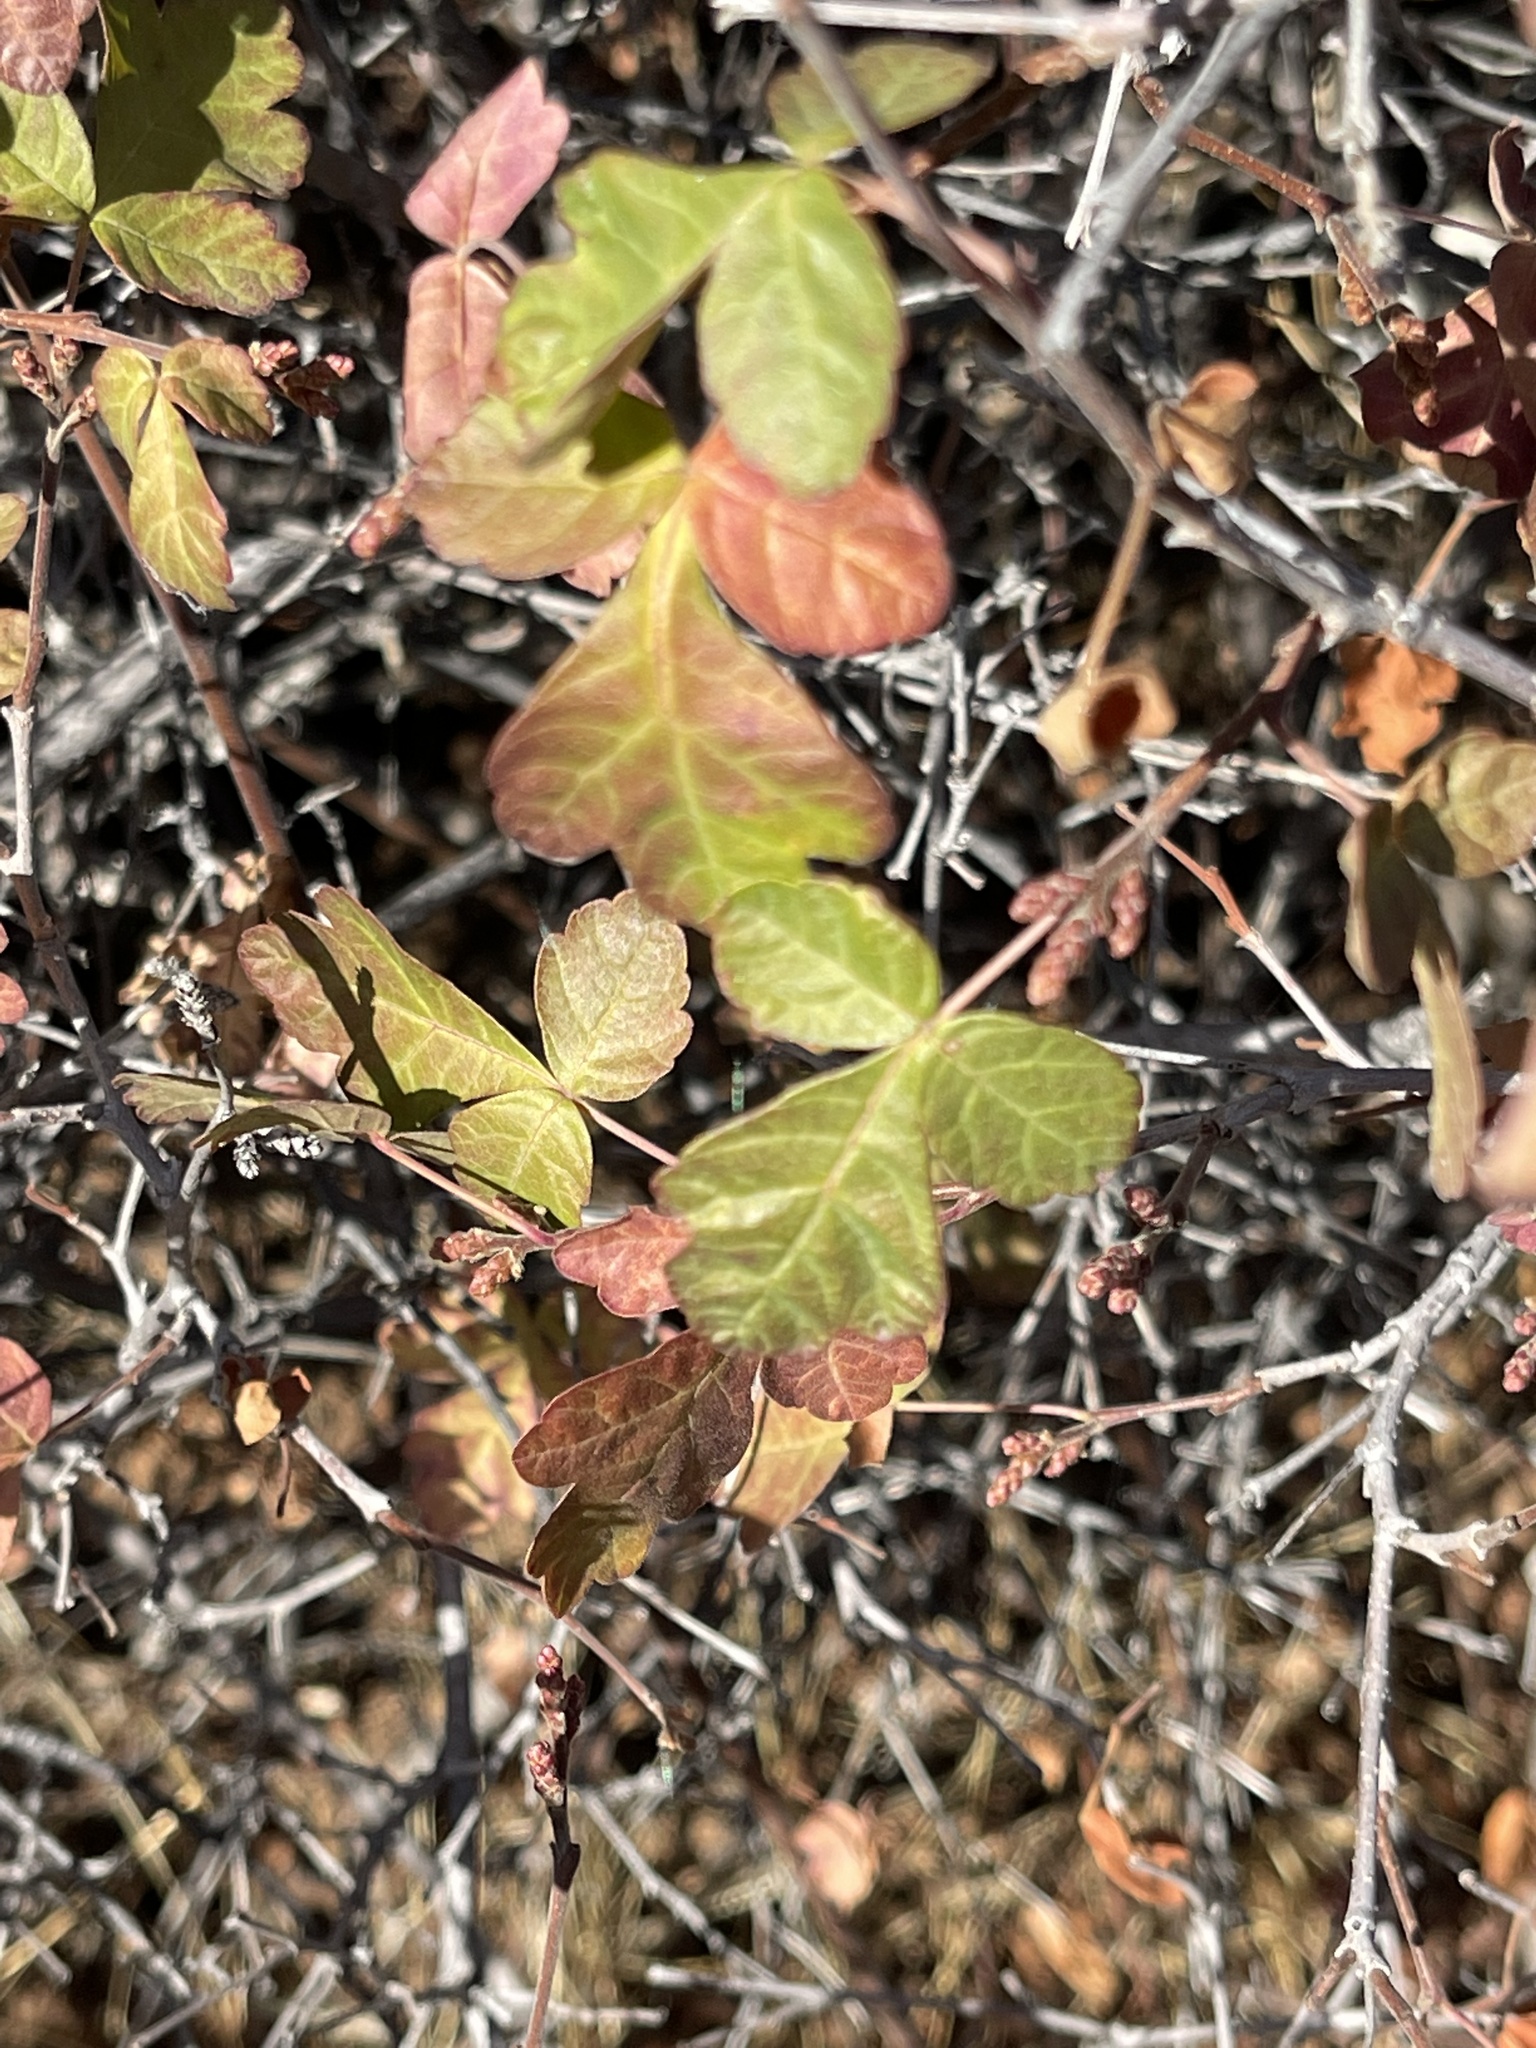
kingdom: Plantae
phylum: Tracheophyta
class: Magnoliopsida
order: Sapindales
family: Anacardiaceae
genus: Rhus
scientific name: Rhus aromatica
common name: Aromatic sumac
